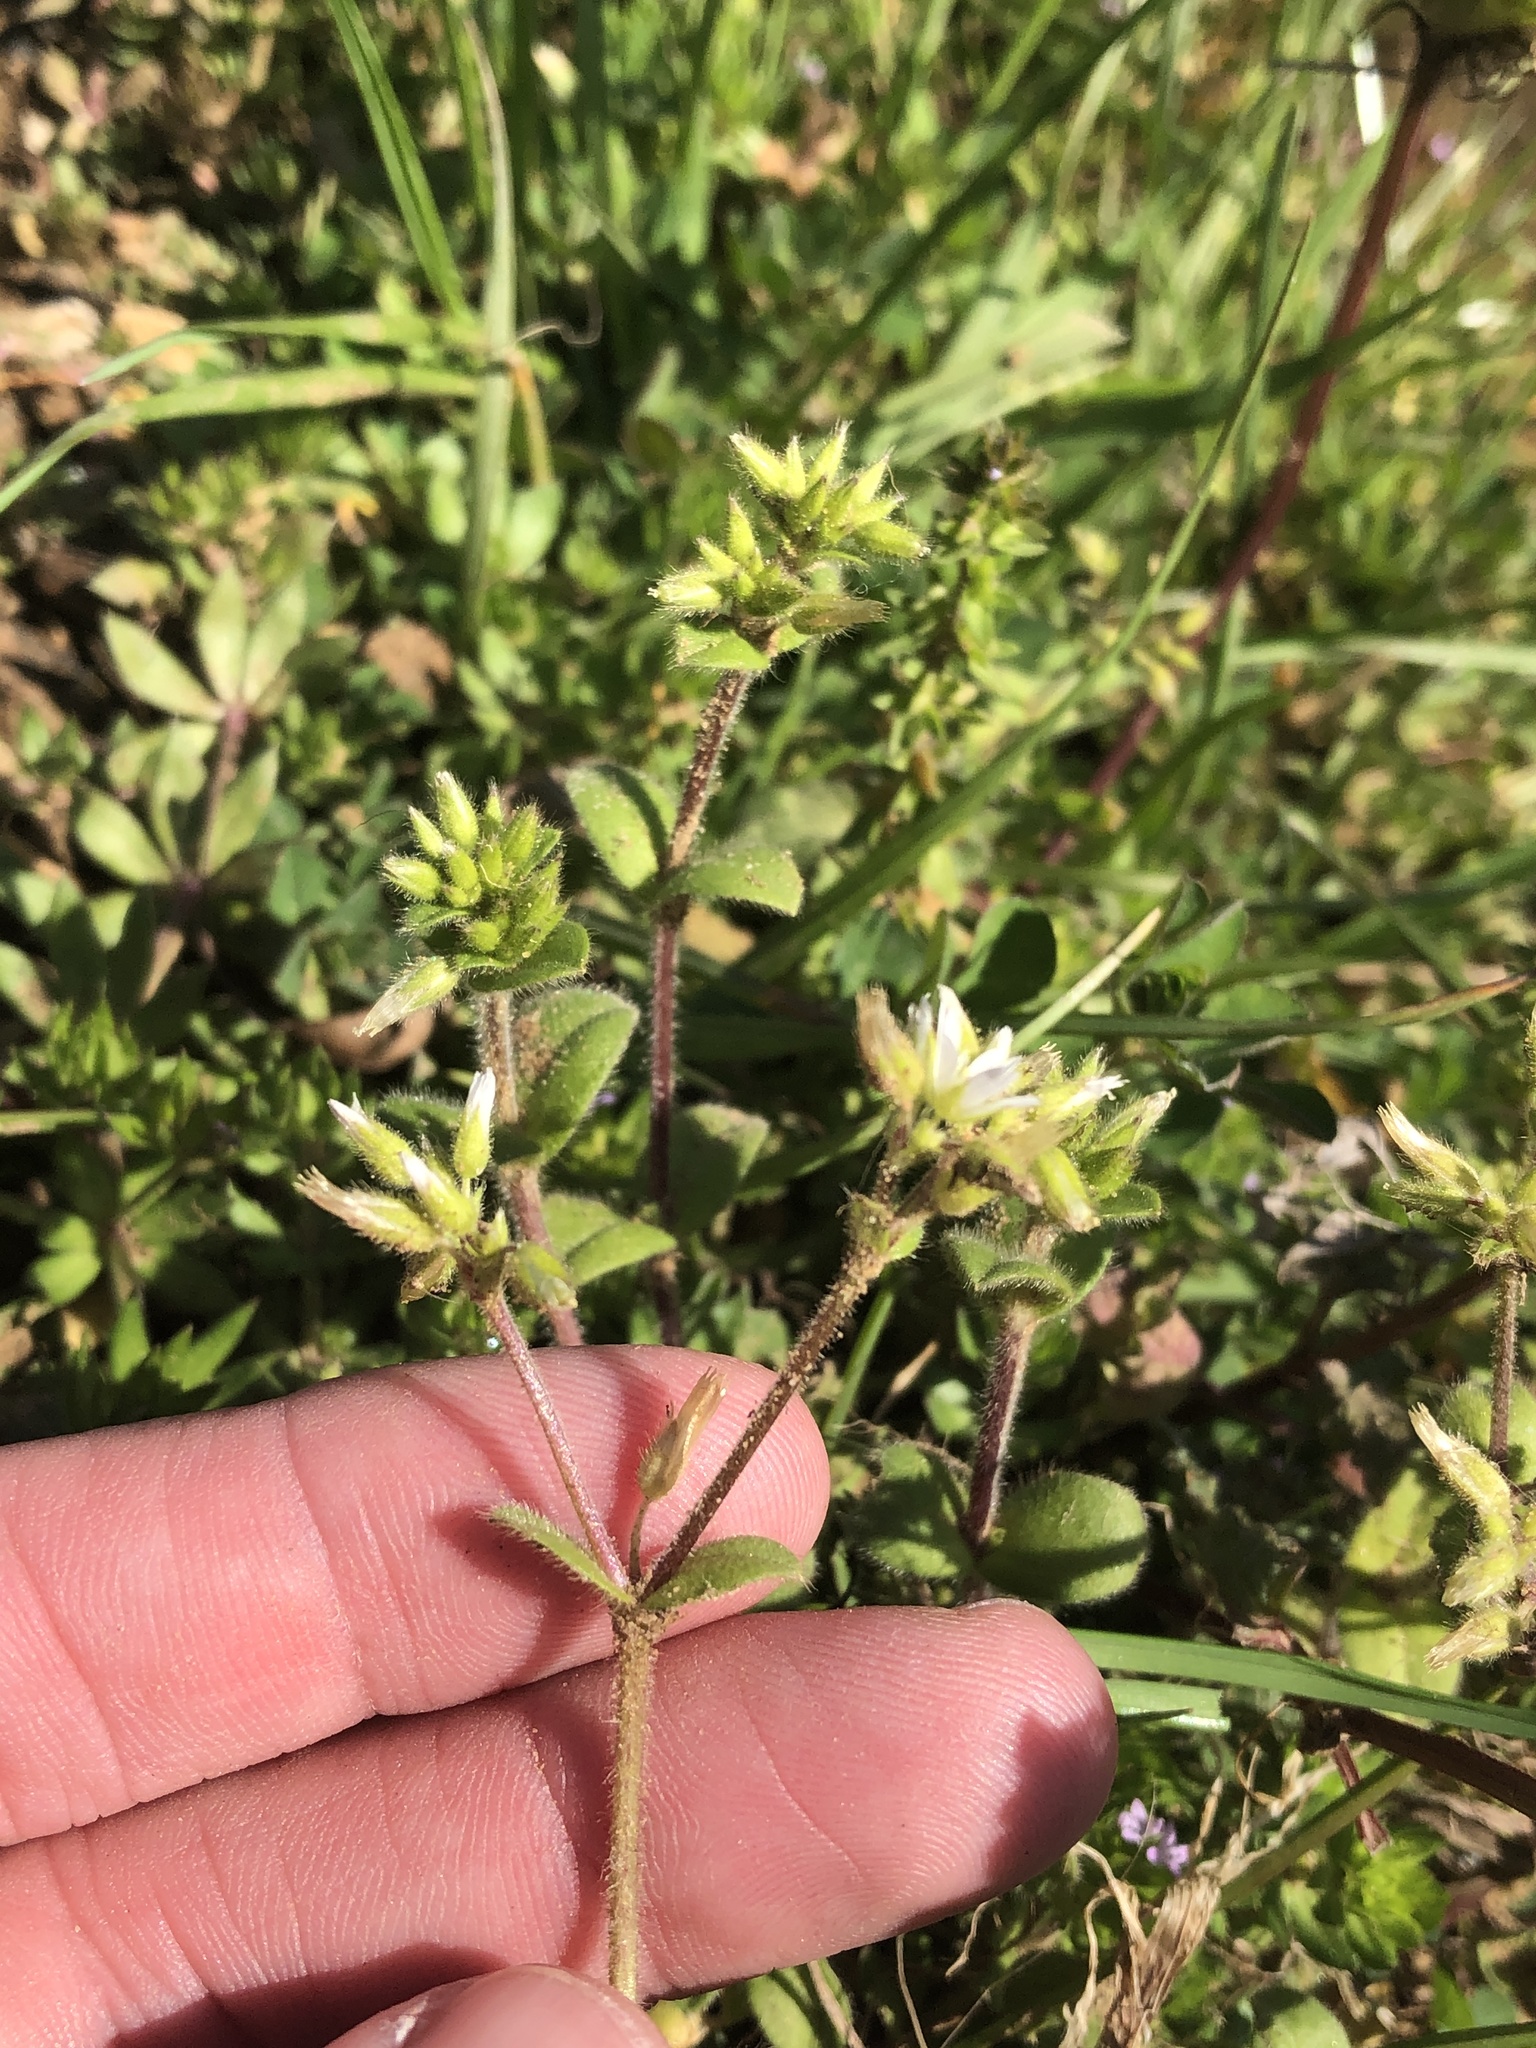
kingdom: Plantae
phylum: Tracheophyta
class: Magnoliopsida
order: Caryophyllales
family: Caryophyllaceae
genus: Cerastium
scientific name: Cerastium glomeratum
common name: Sticky chickweed
